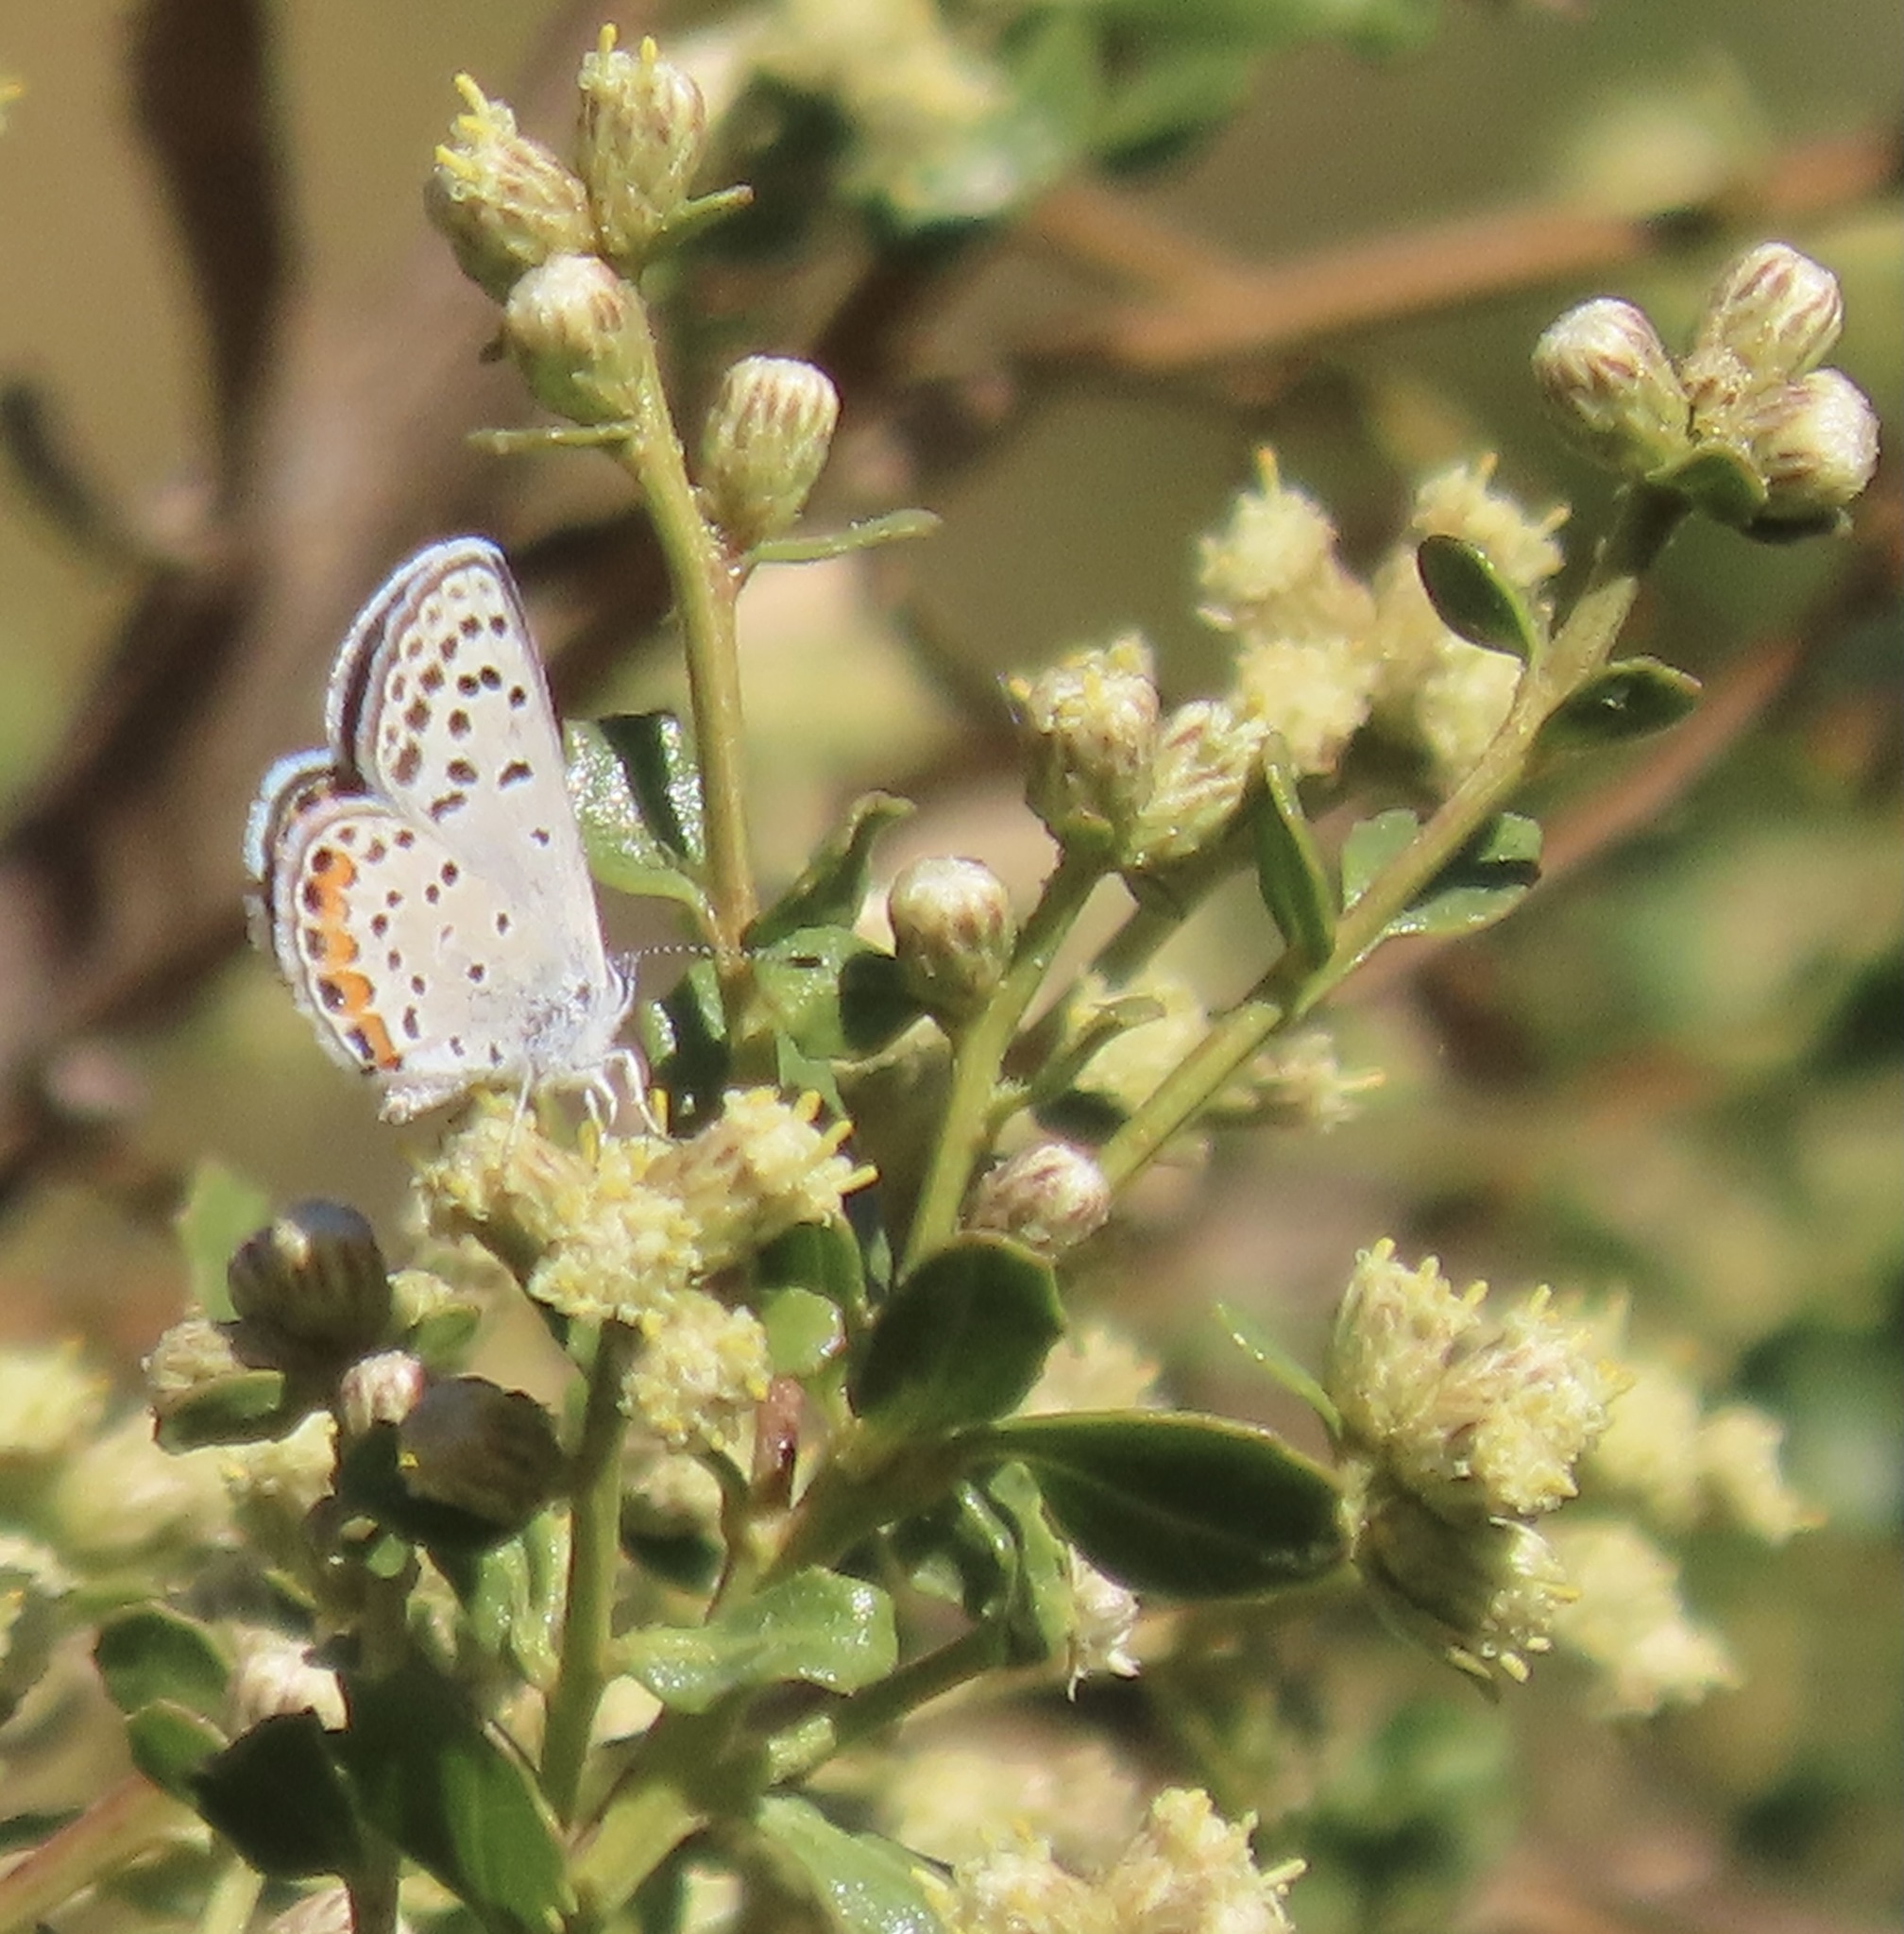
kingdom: Animalia
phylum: Arthropoda
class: Insecta
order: Lepidoptera
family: Lycaenidae
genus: Icaricia
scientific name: Icaricia acmon
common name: Acmon blue
